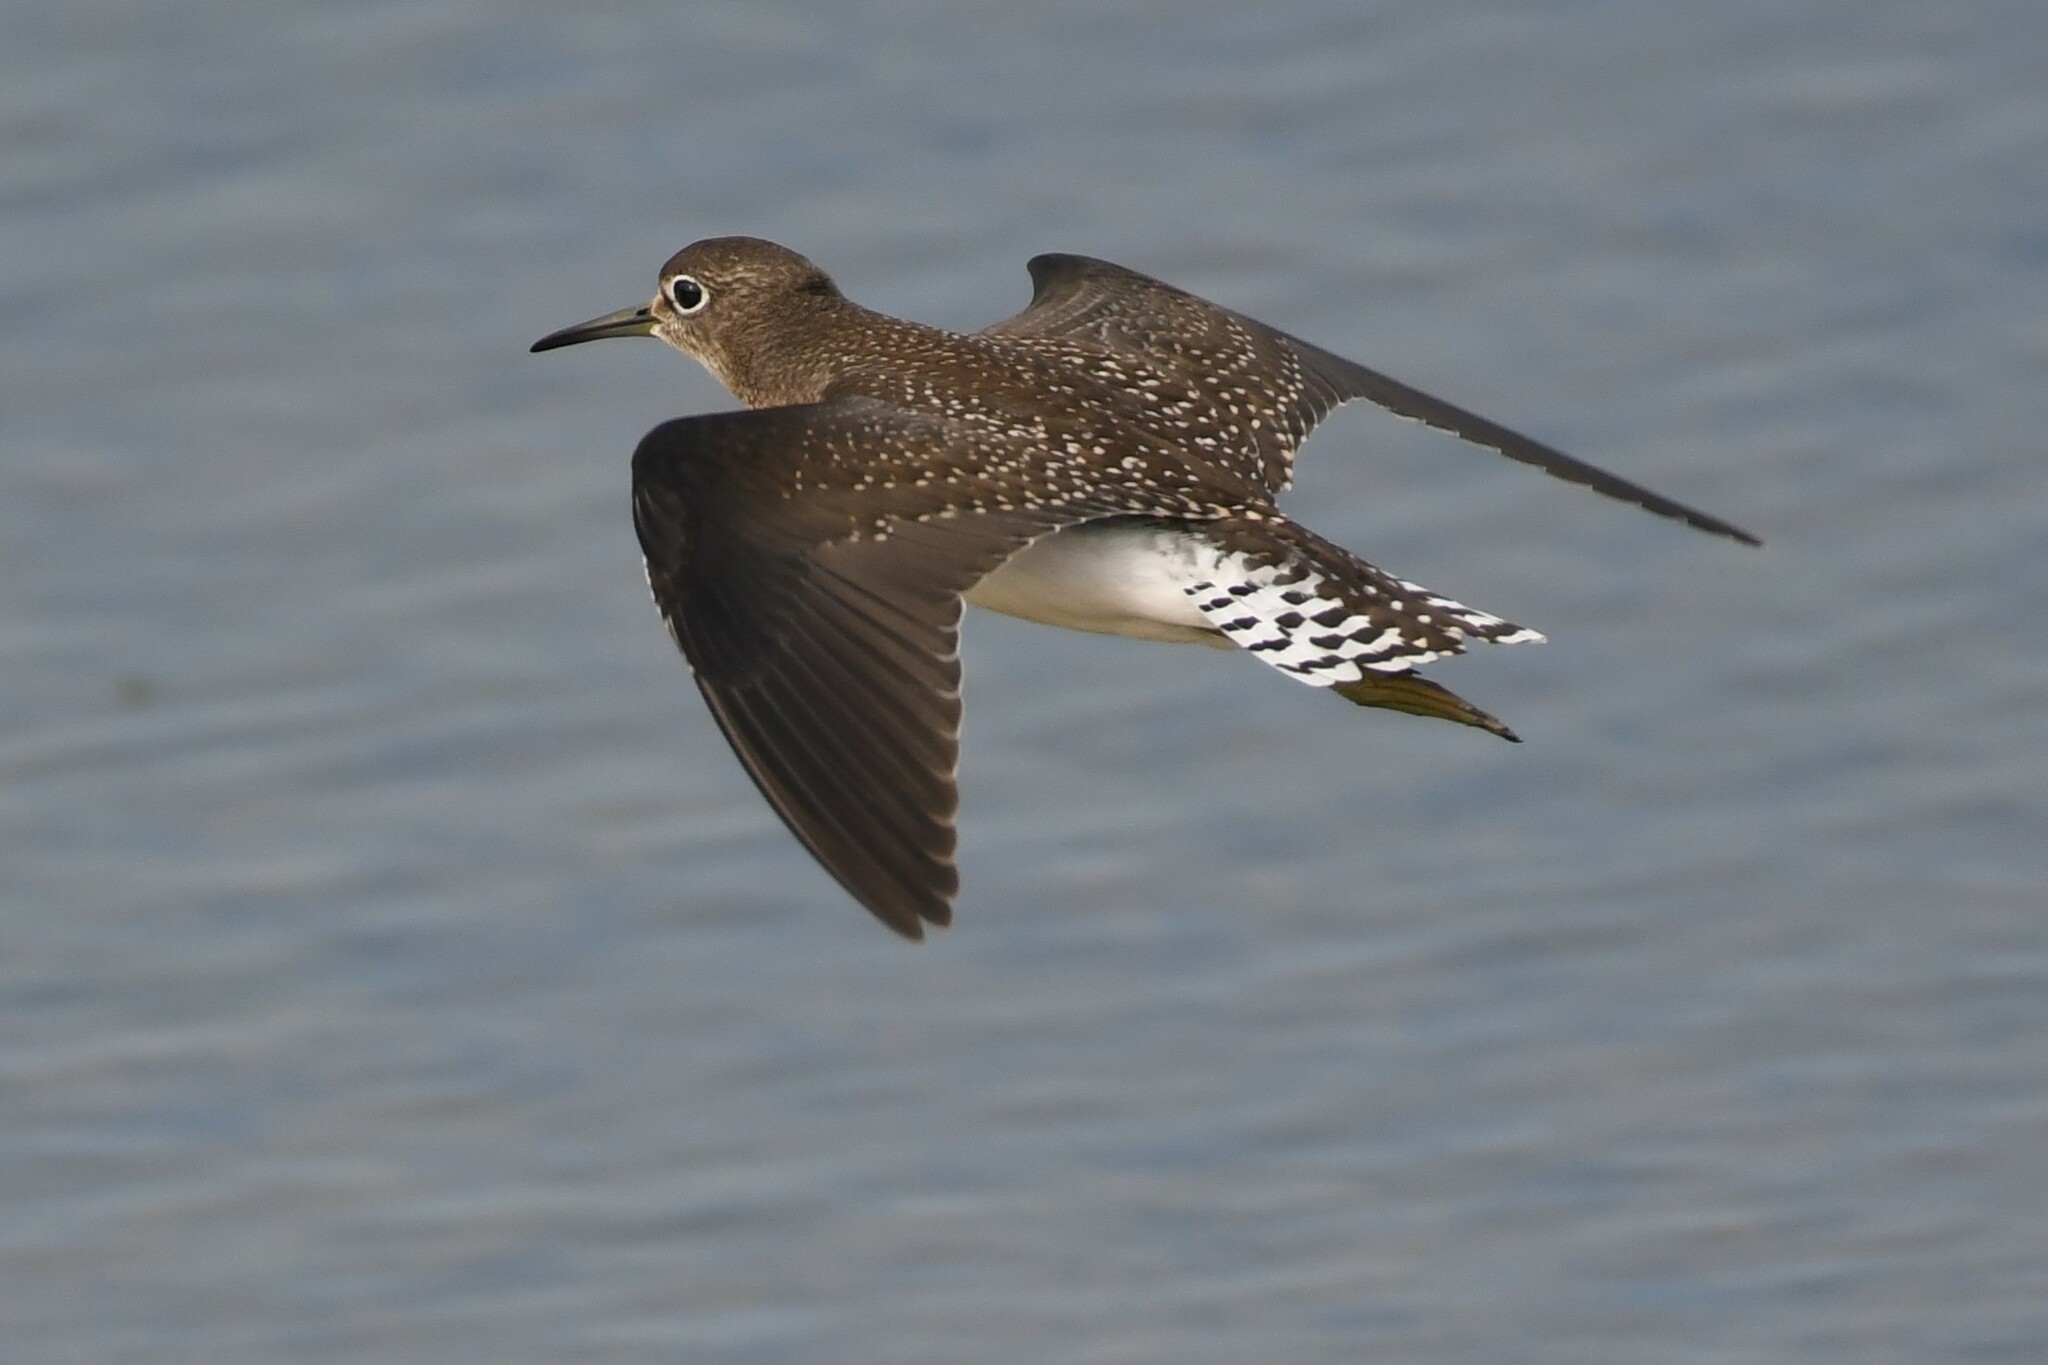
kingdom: Animalia
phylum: Chordata
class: Aves
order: Charadriiformes
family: Scolopacidae
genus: Tringa
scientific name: Tringa solitaria
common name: Solitary sandpiper
